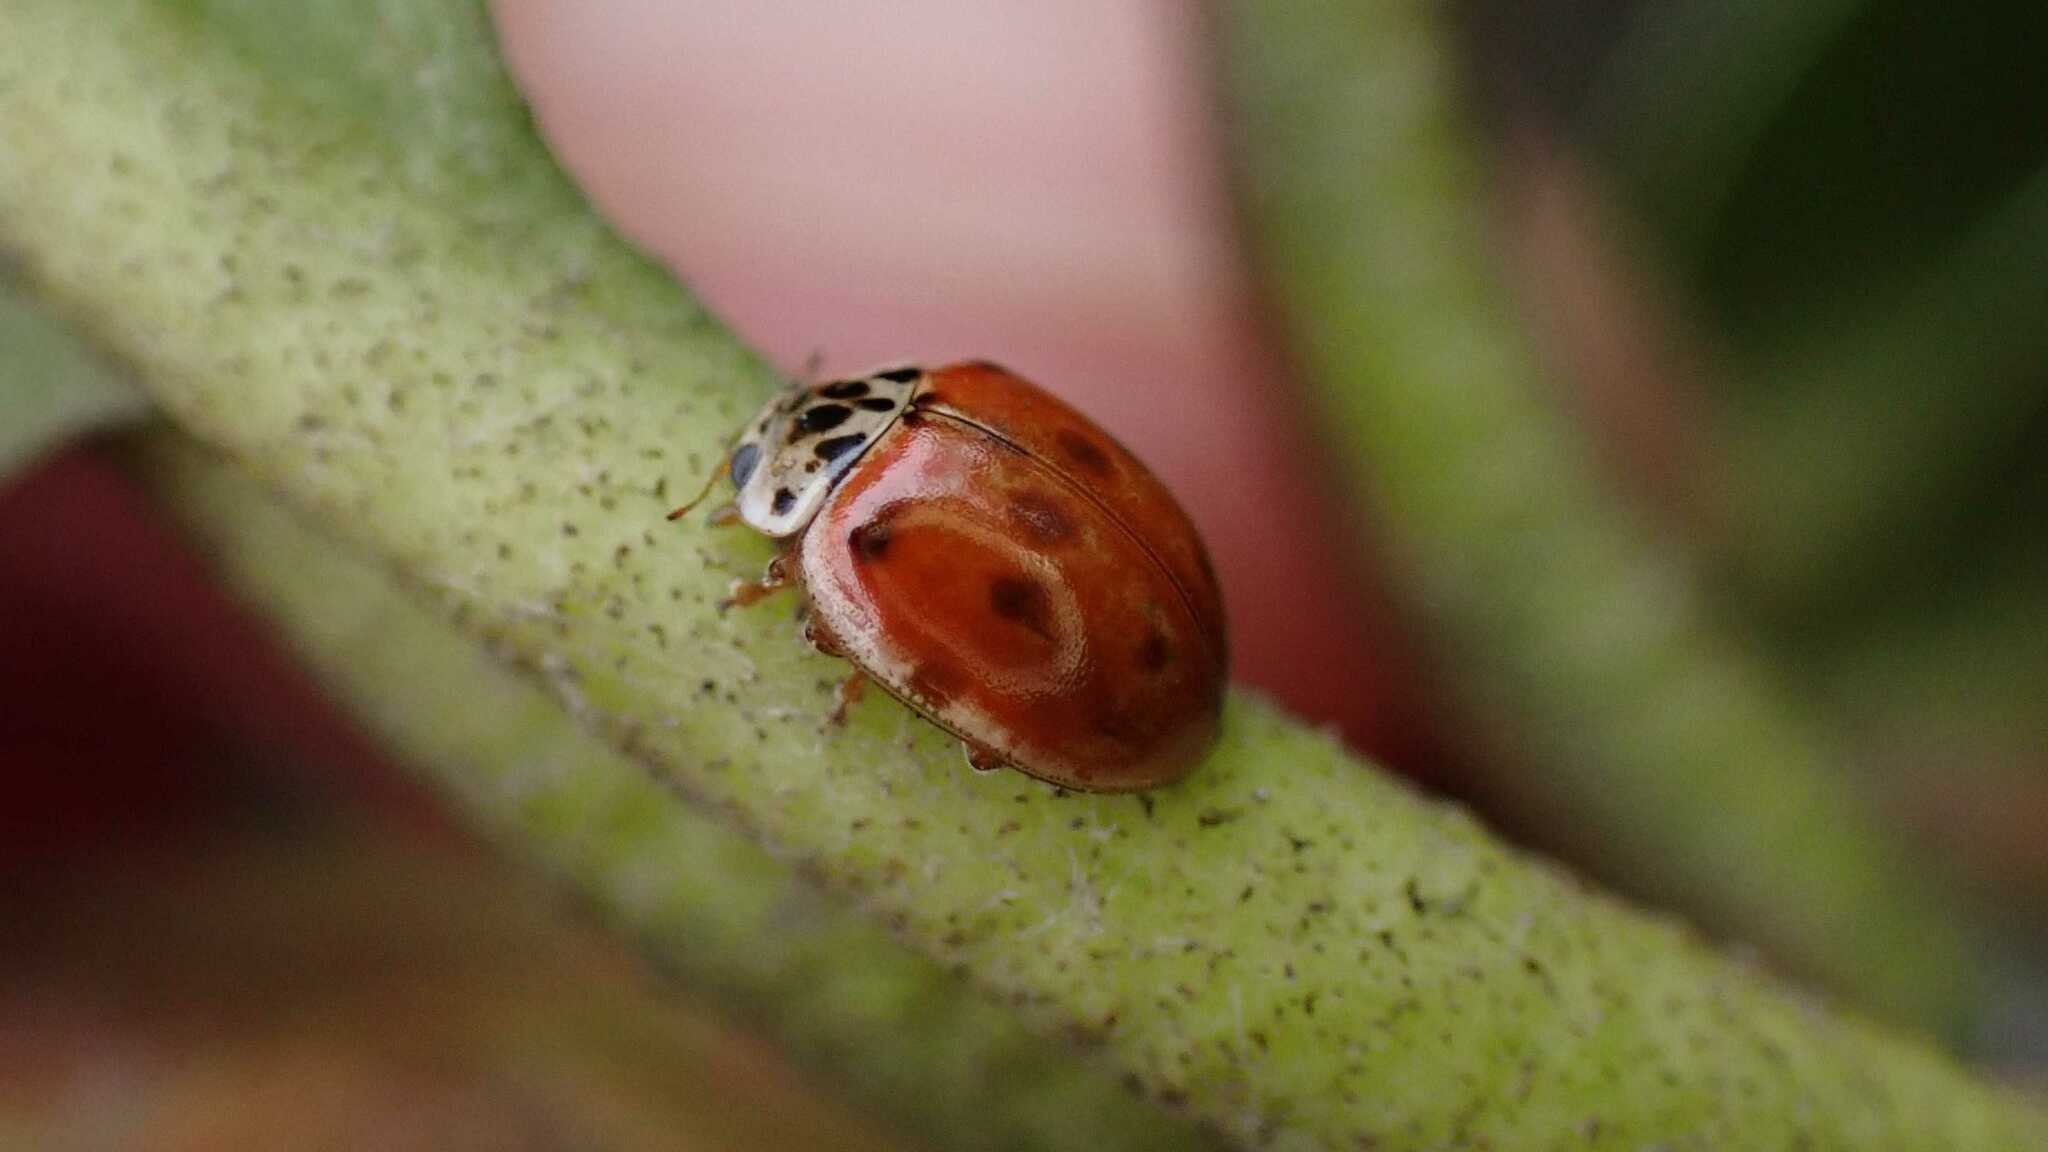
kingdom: Animalia
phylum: Arthropoda
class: Insecta
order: Coleoptera
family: Coccinellidae
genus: Adalia
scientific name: Adalia decempunctata
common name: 10-spot ladybird
